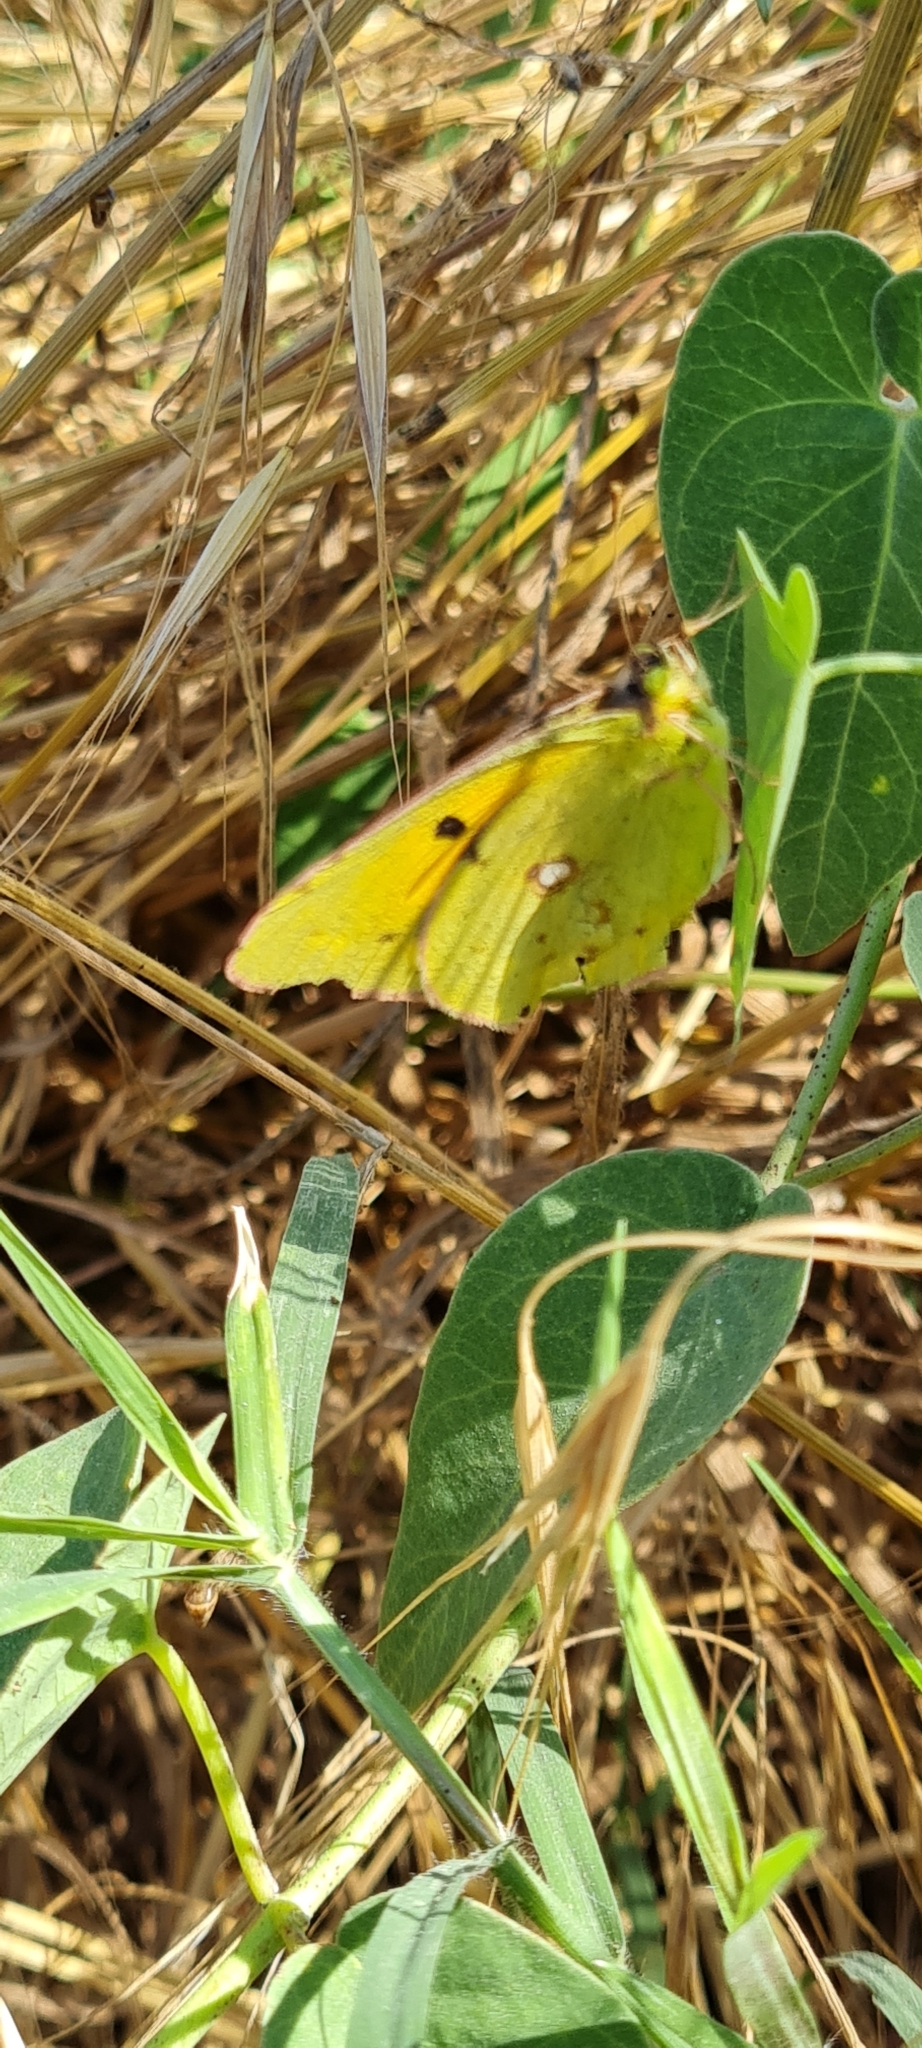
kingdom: Animalia
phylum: Arthropoda
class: Insecta
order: Lepidoptera
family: Pieridae
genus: Colias
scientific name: Colias croceus
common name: Clouded yellow
